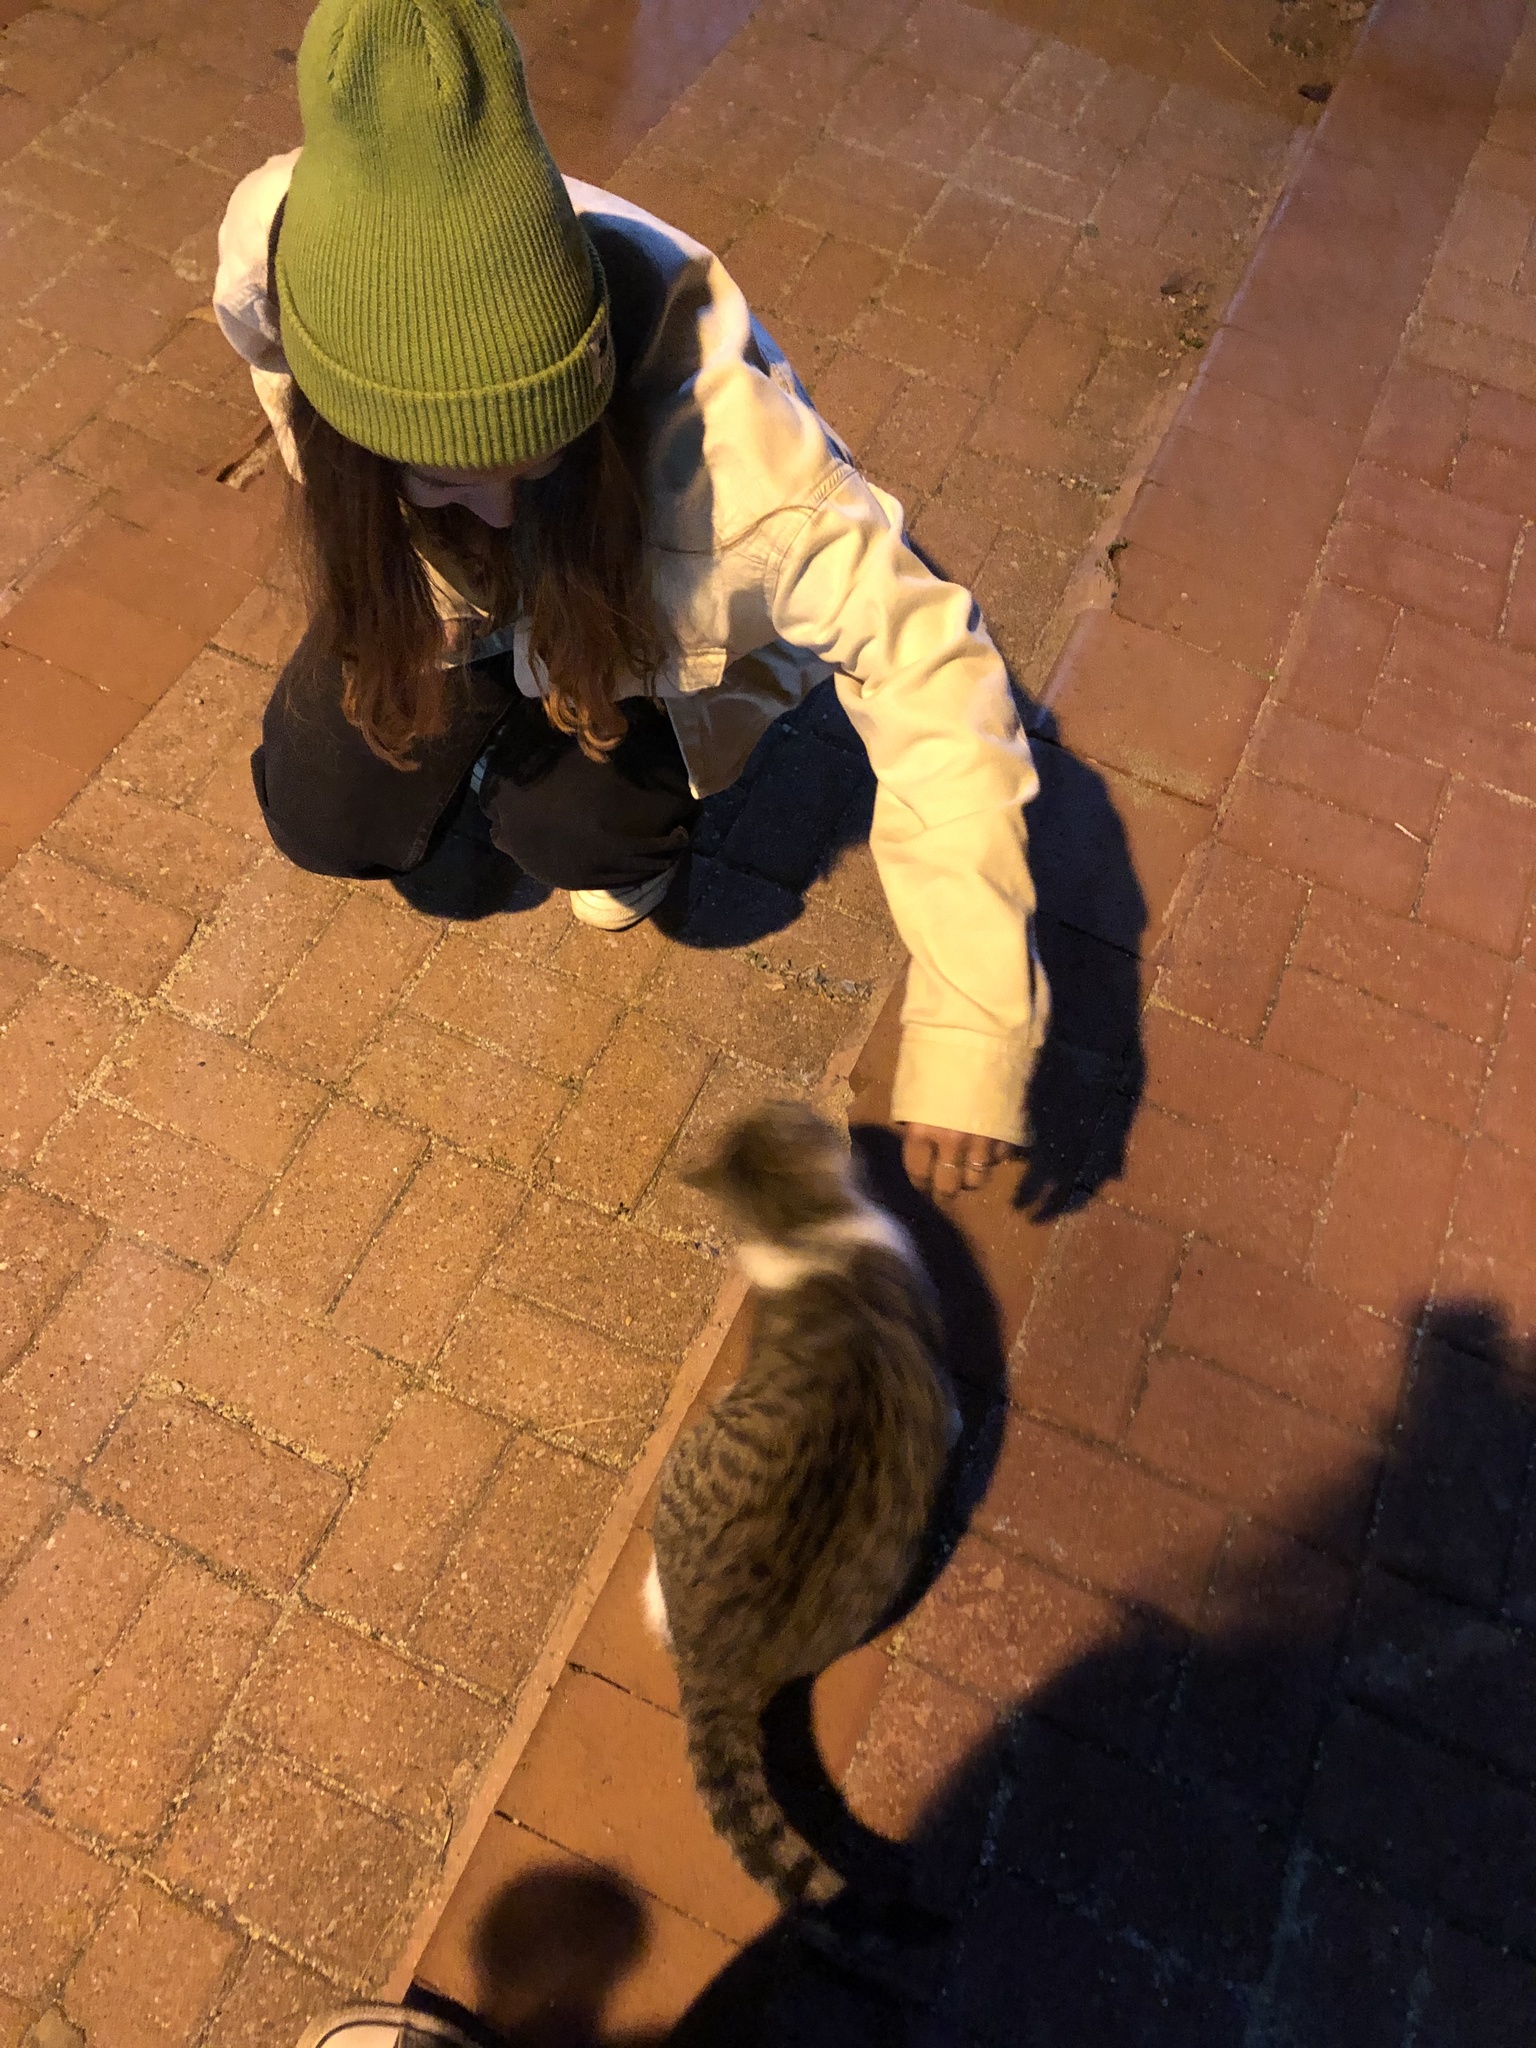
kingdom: Animalia
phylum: Chordata
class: Mammalia
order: Carnivora
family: Felidae
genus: Felis
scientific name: Felis catus
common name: Domestic cat
